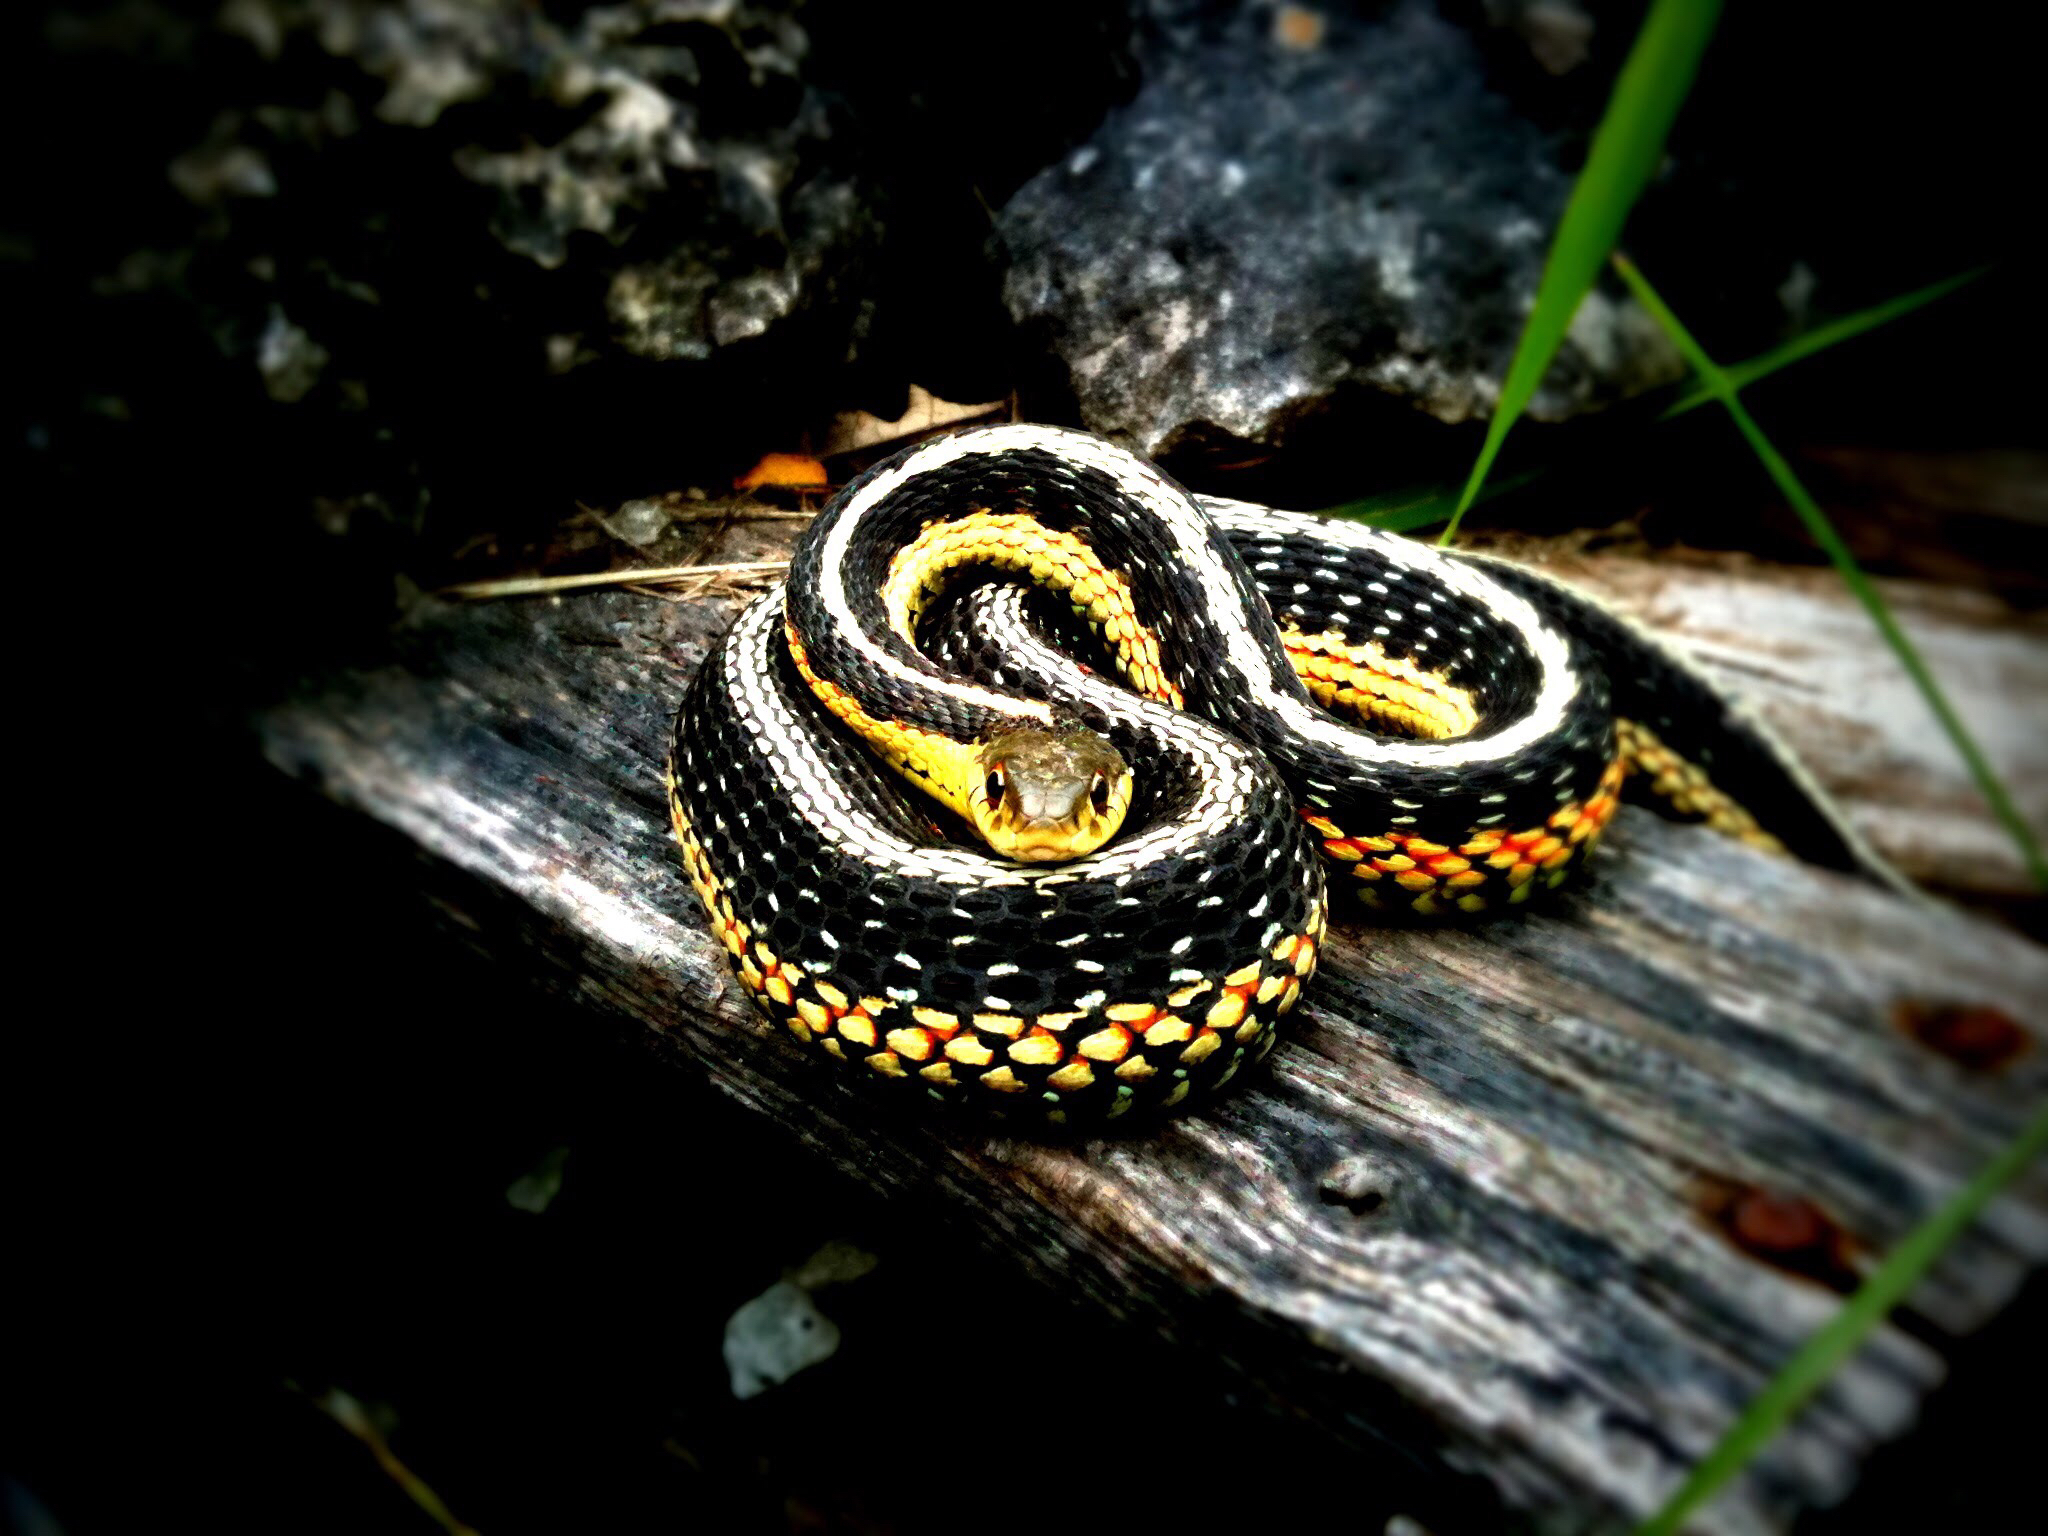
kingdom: Animalia
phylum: Chordata
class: Squamata
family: Colubridae
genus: Thamnophis
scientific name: Thamnophis sirtalis
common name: Common garter snake
